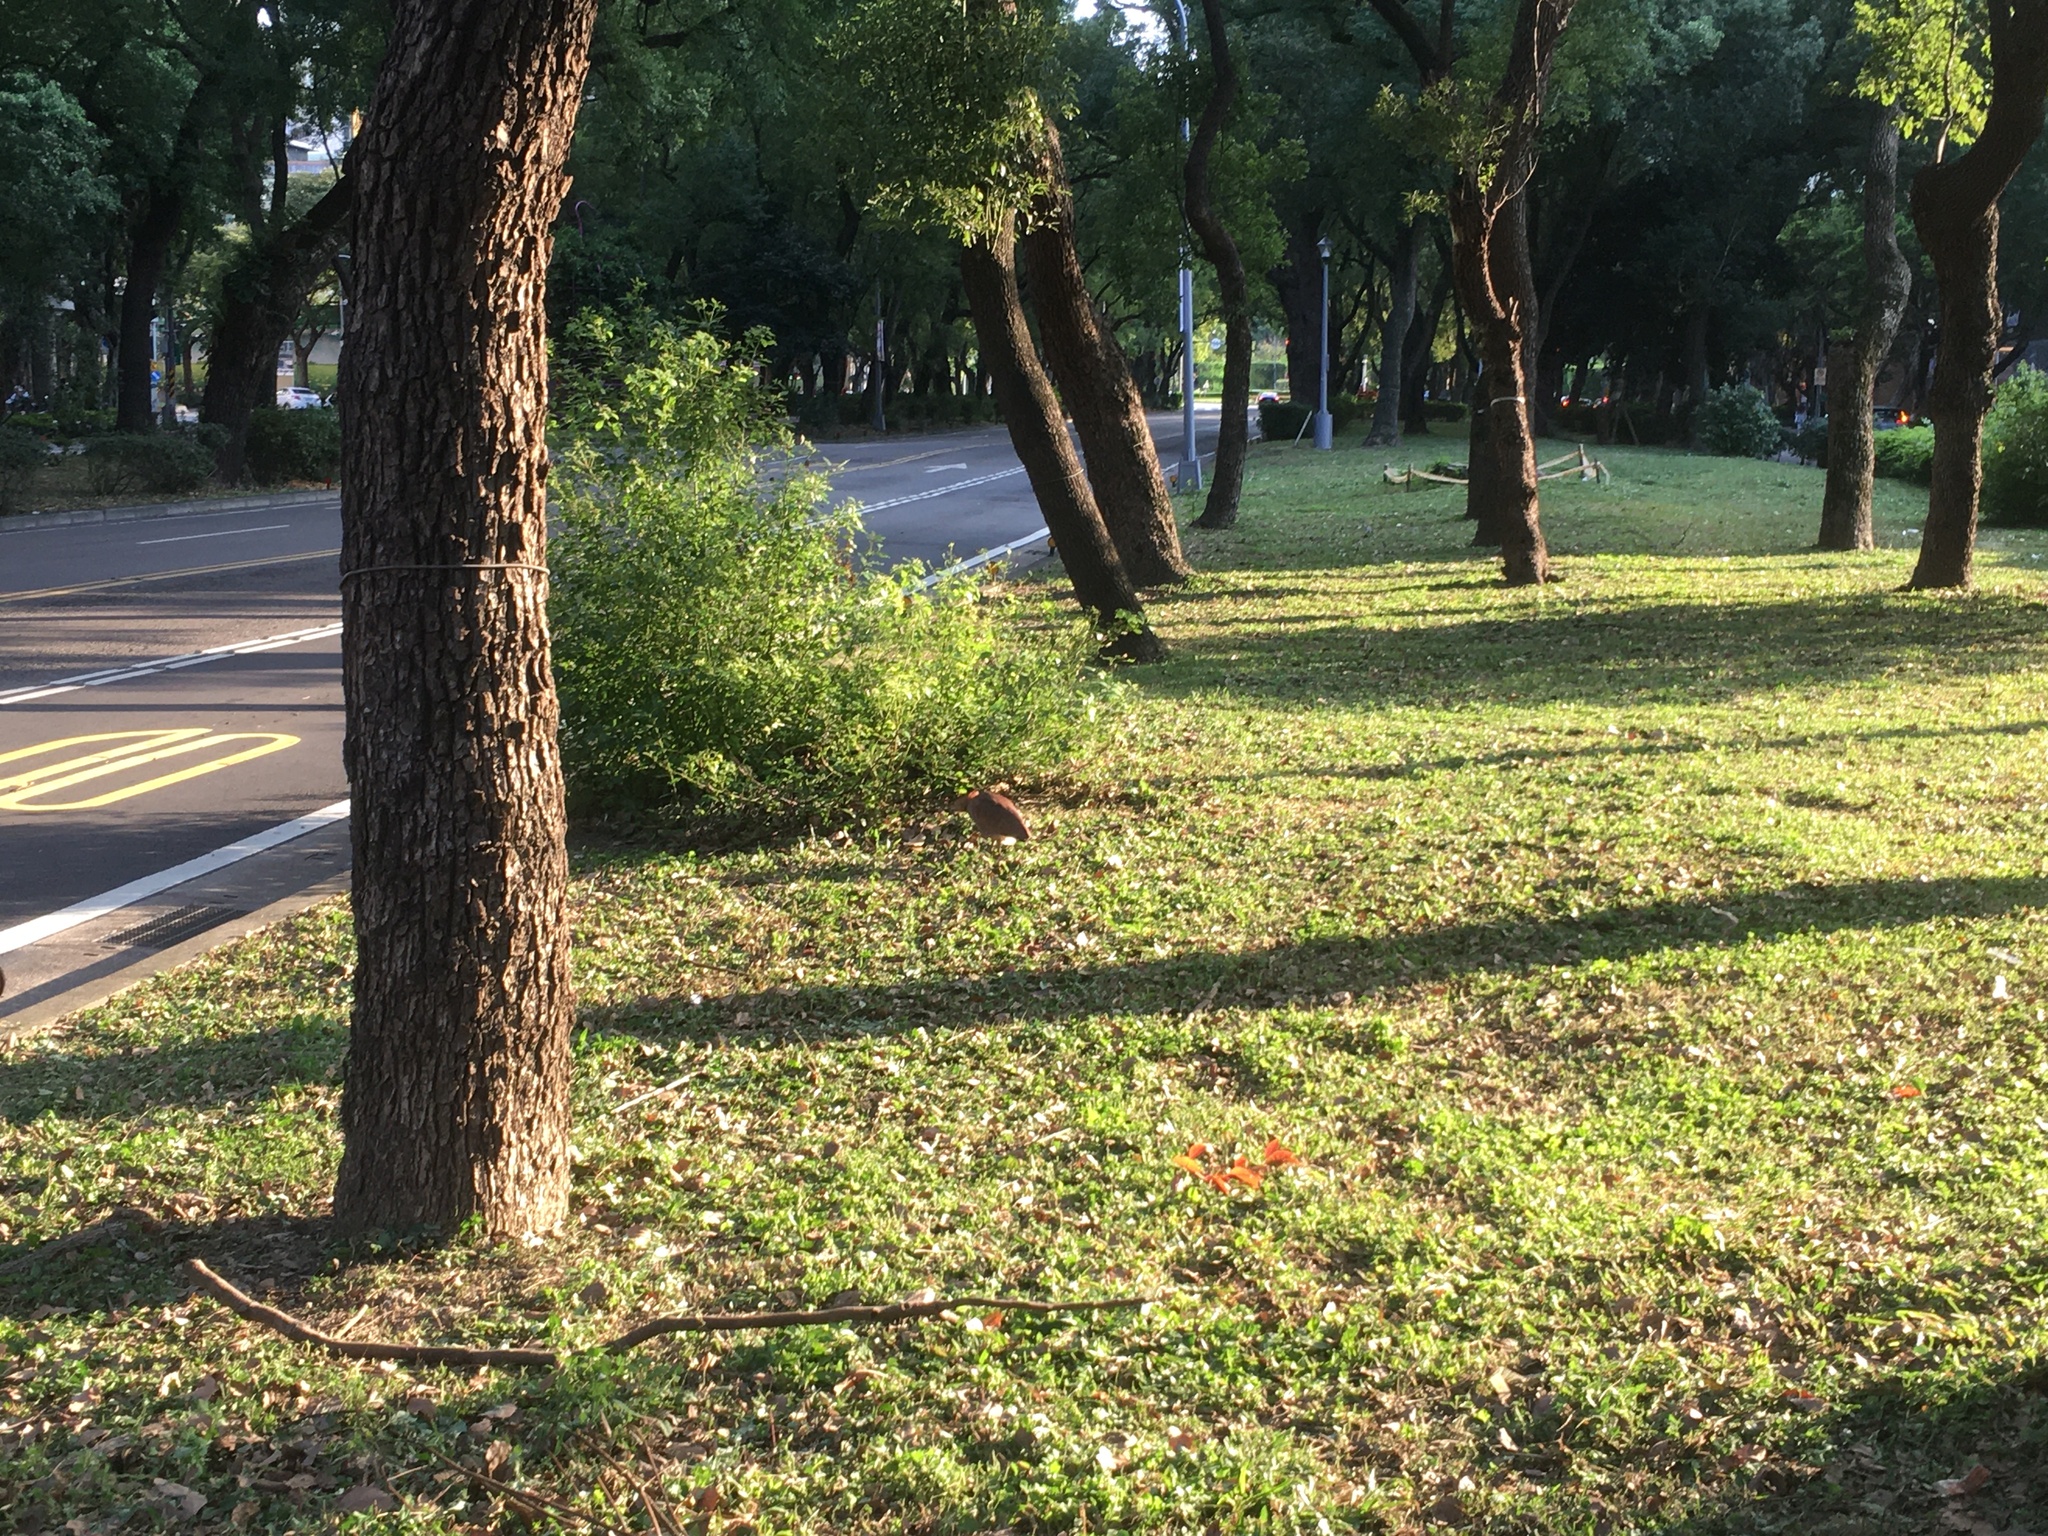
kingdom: Animalia
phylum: Chordata
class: Aves
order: Pelecaniformes
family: Ardeidae
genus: Gorsachius
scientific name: Gorsachius melanolophus
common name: Malayan night heron
